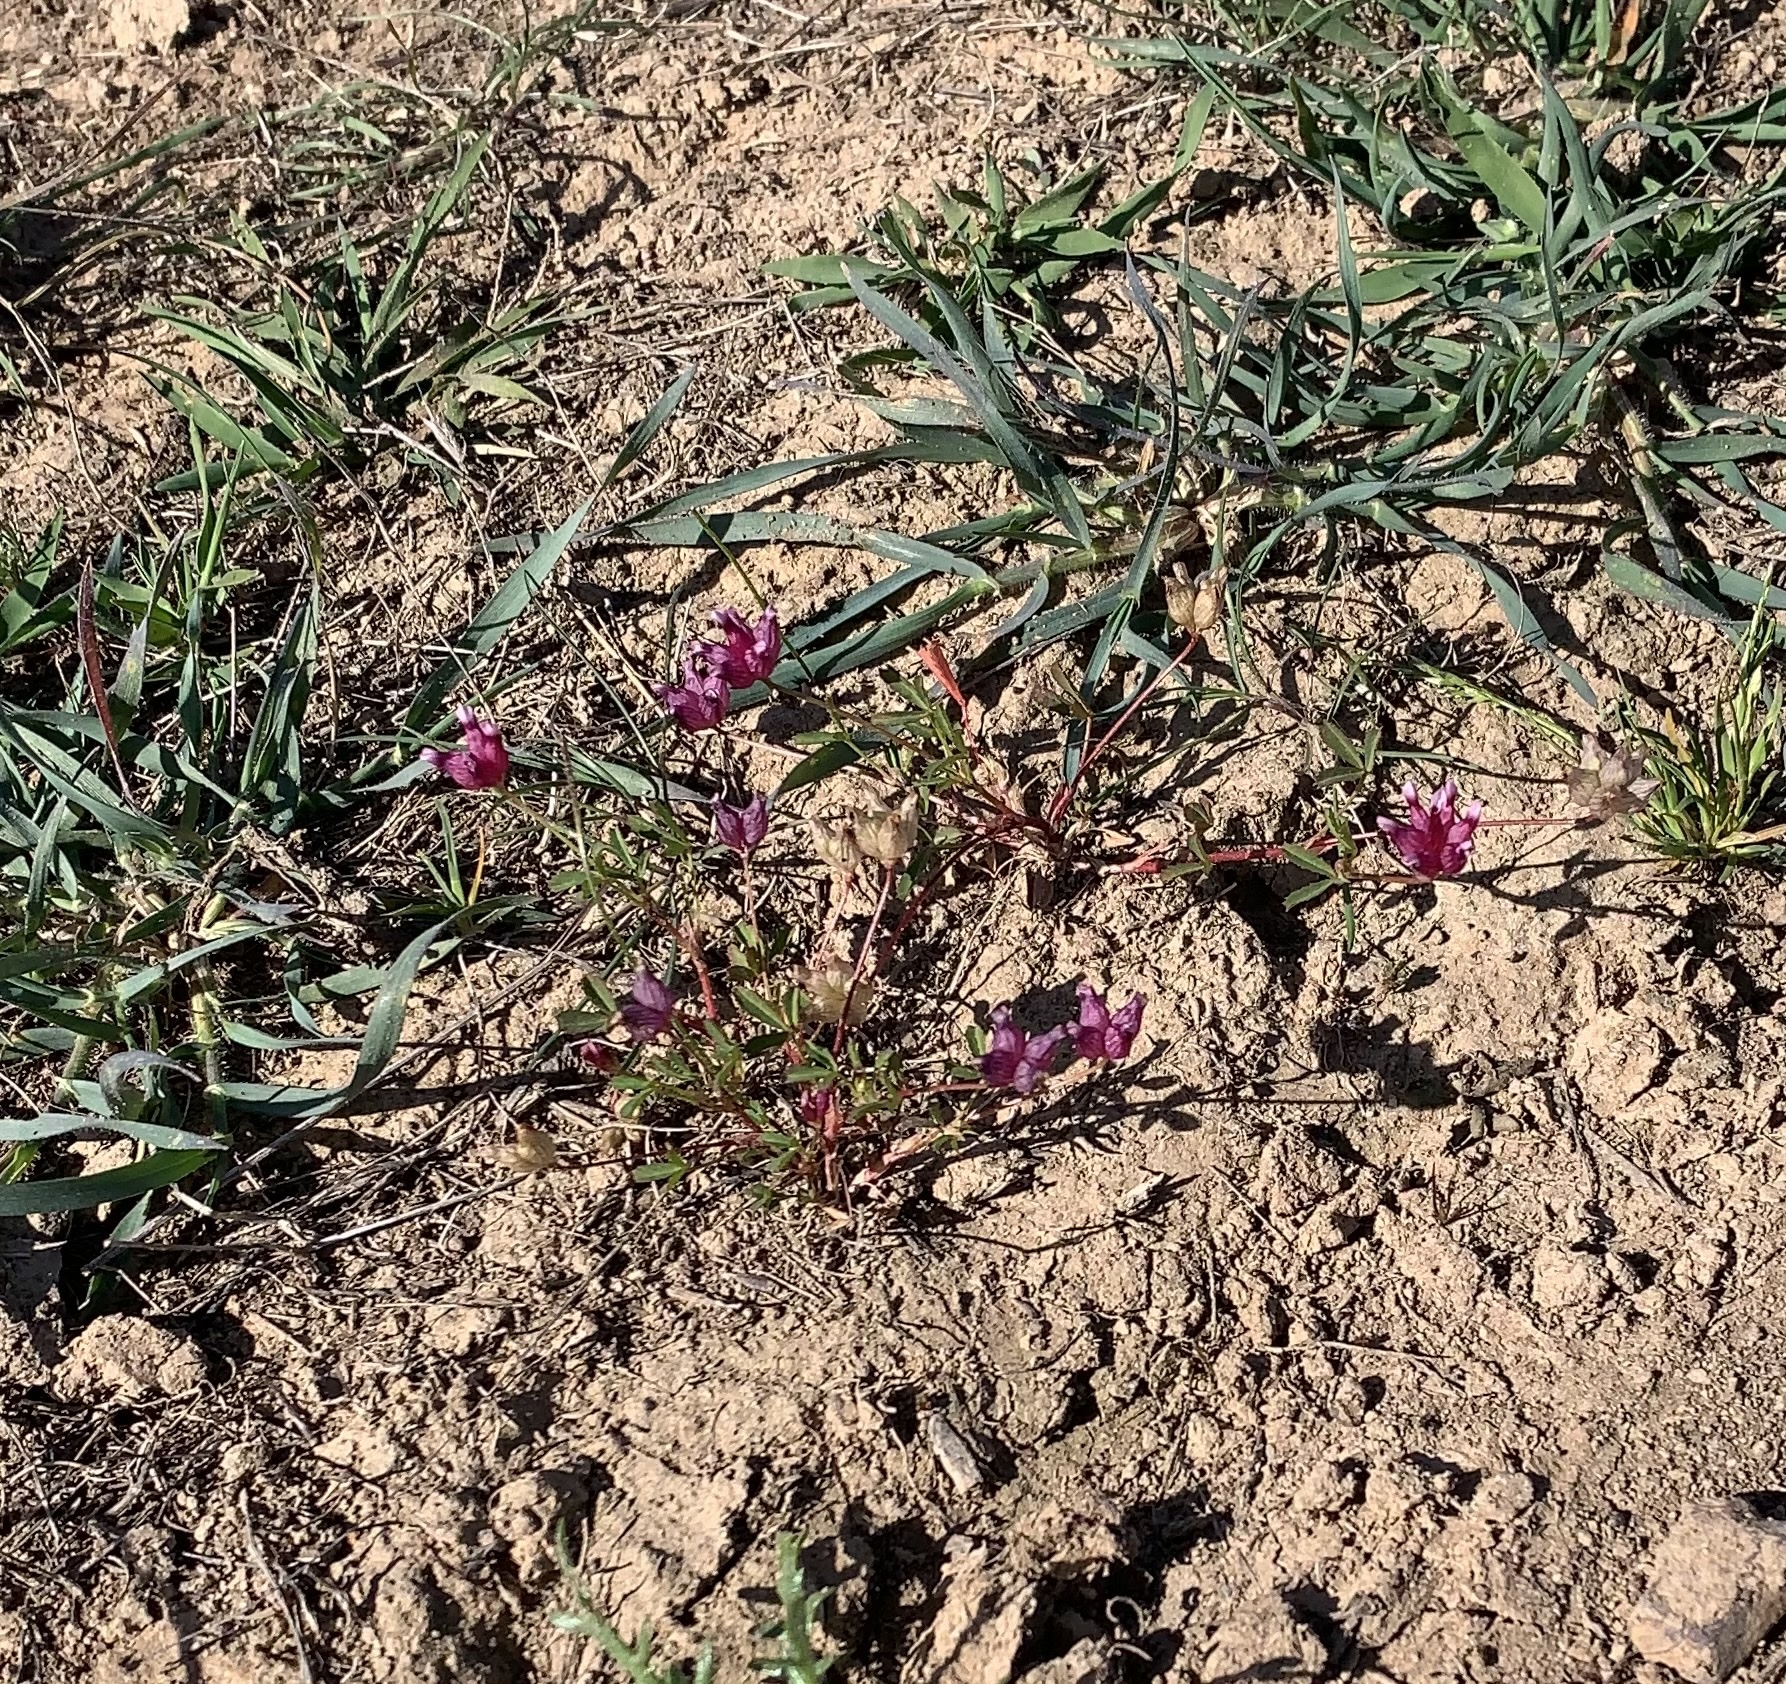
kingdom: Plantae
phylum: Tracheophyta
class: Magnoliopsida
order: Fabales
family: Fabaceae
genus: Trifolium
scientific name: Trifolium depauperatum
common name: Poverty clover
